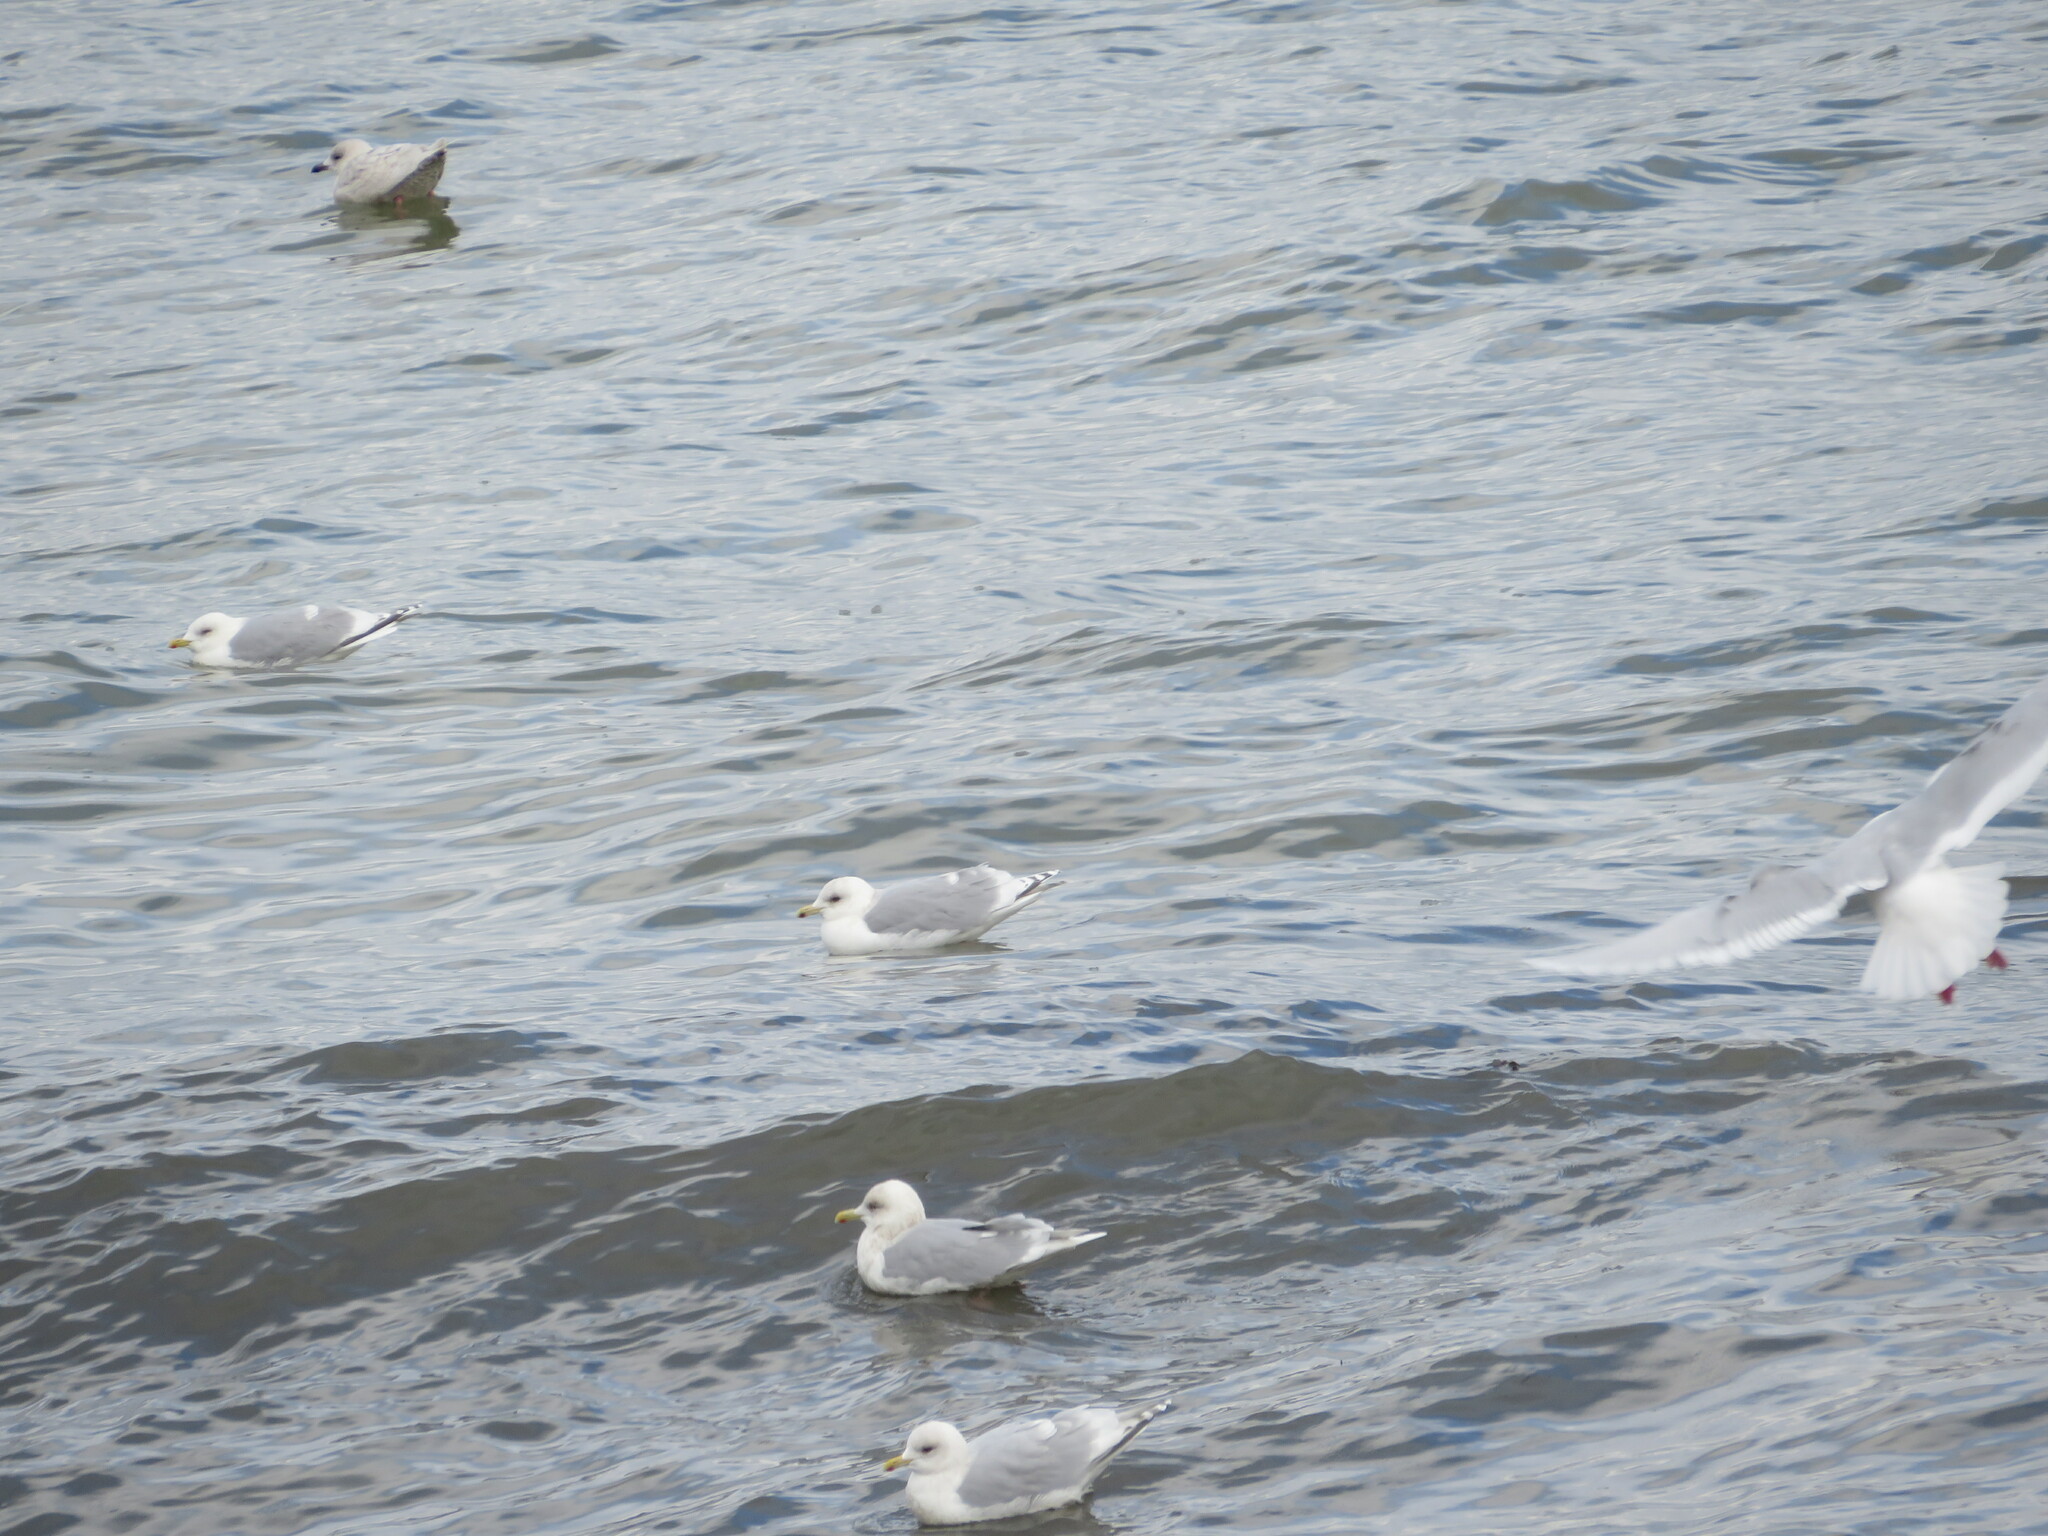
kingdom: Animalia
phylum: Chordata
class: Aves
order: Charadriiformes
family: Laridae
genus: Larus
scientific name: Larus glaucoides
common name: Iceland gull
